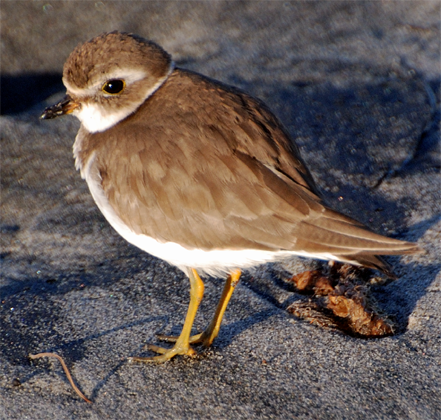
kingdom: Animalia
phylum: Chordata
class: Aves
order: Charadriiformes
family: Charadriidae
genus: Charadrius
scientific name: Charadrius semipalmatus
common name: Semipalmated plover
